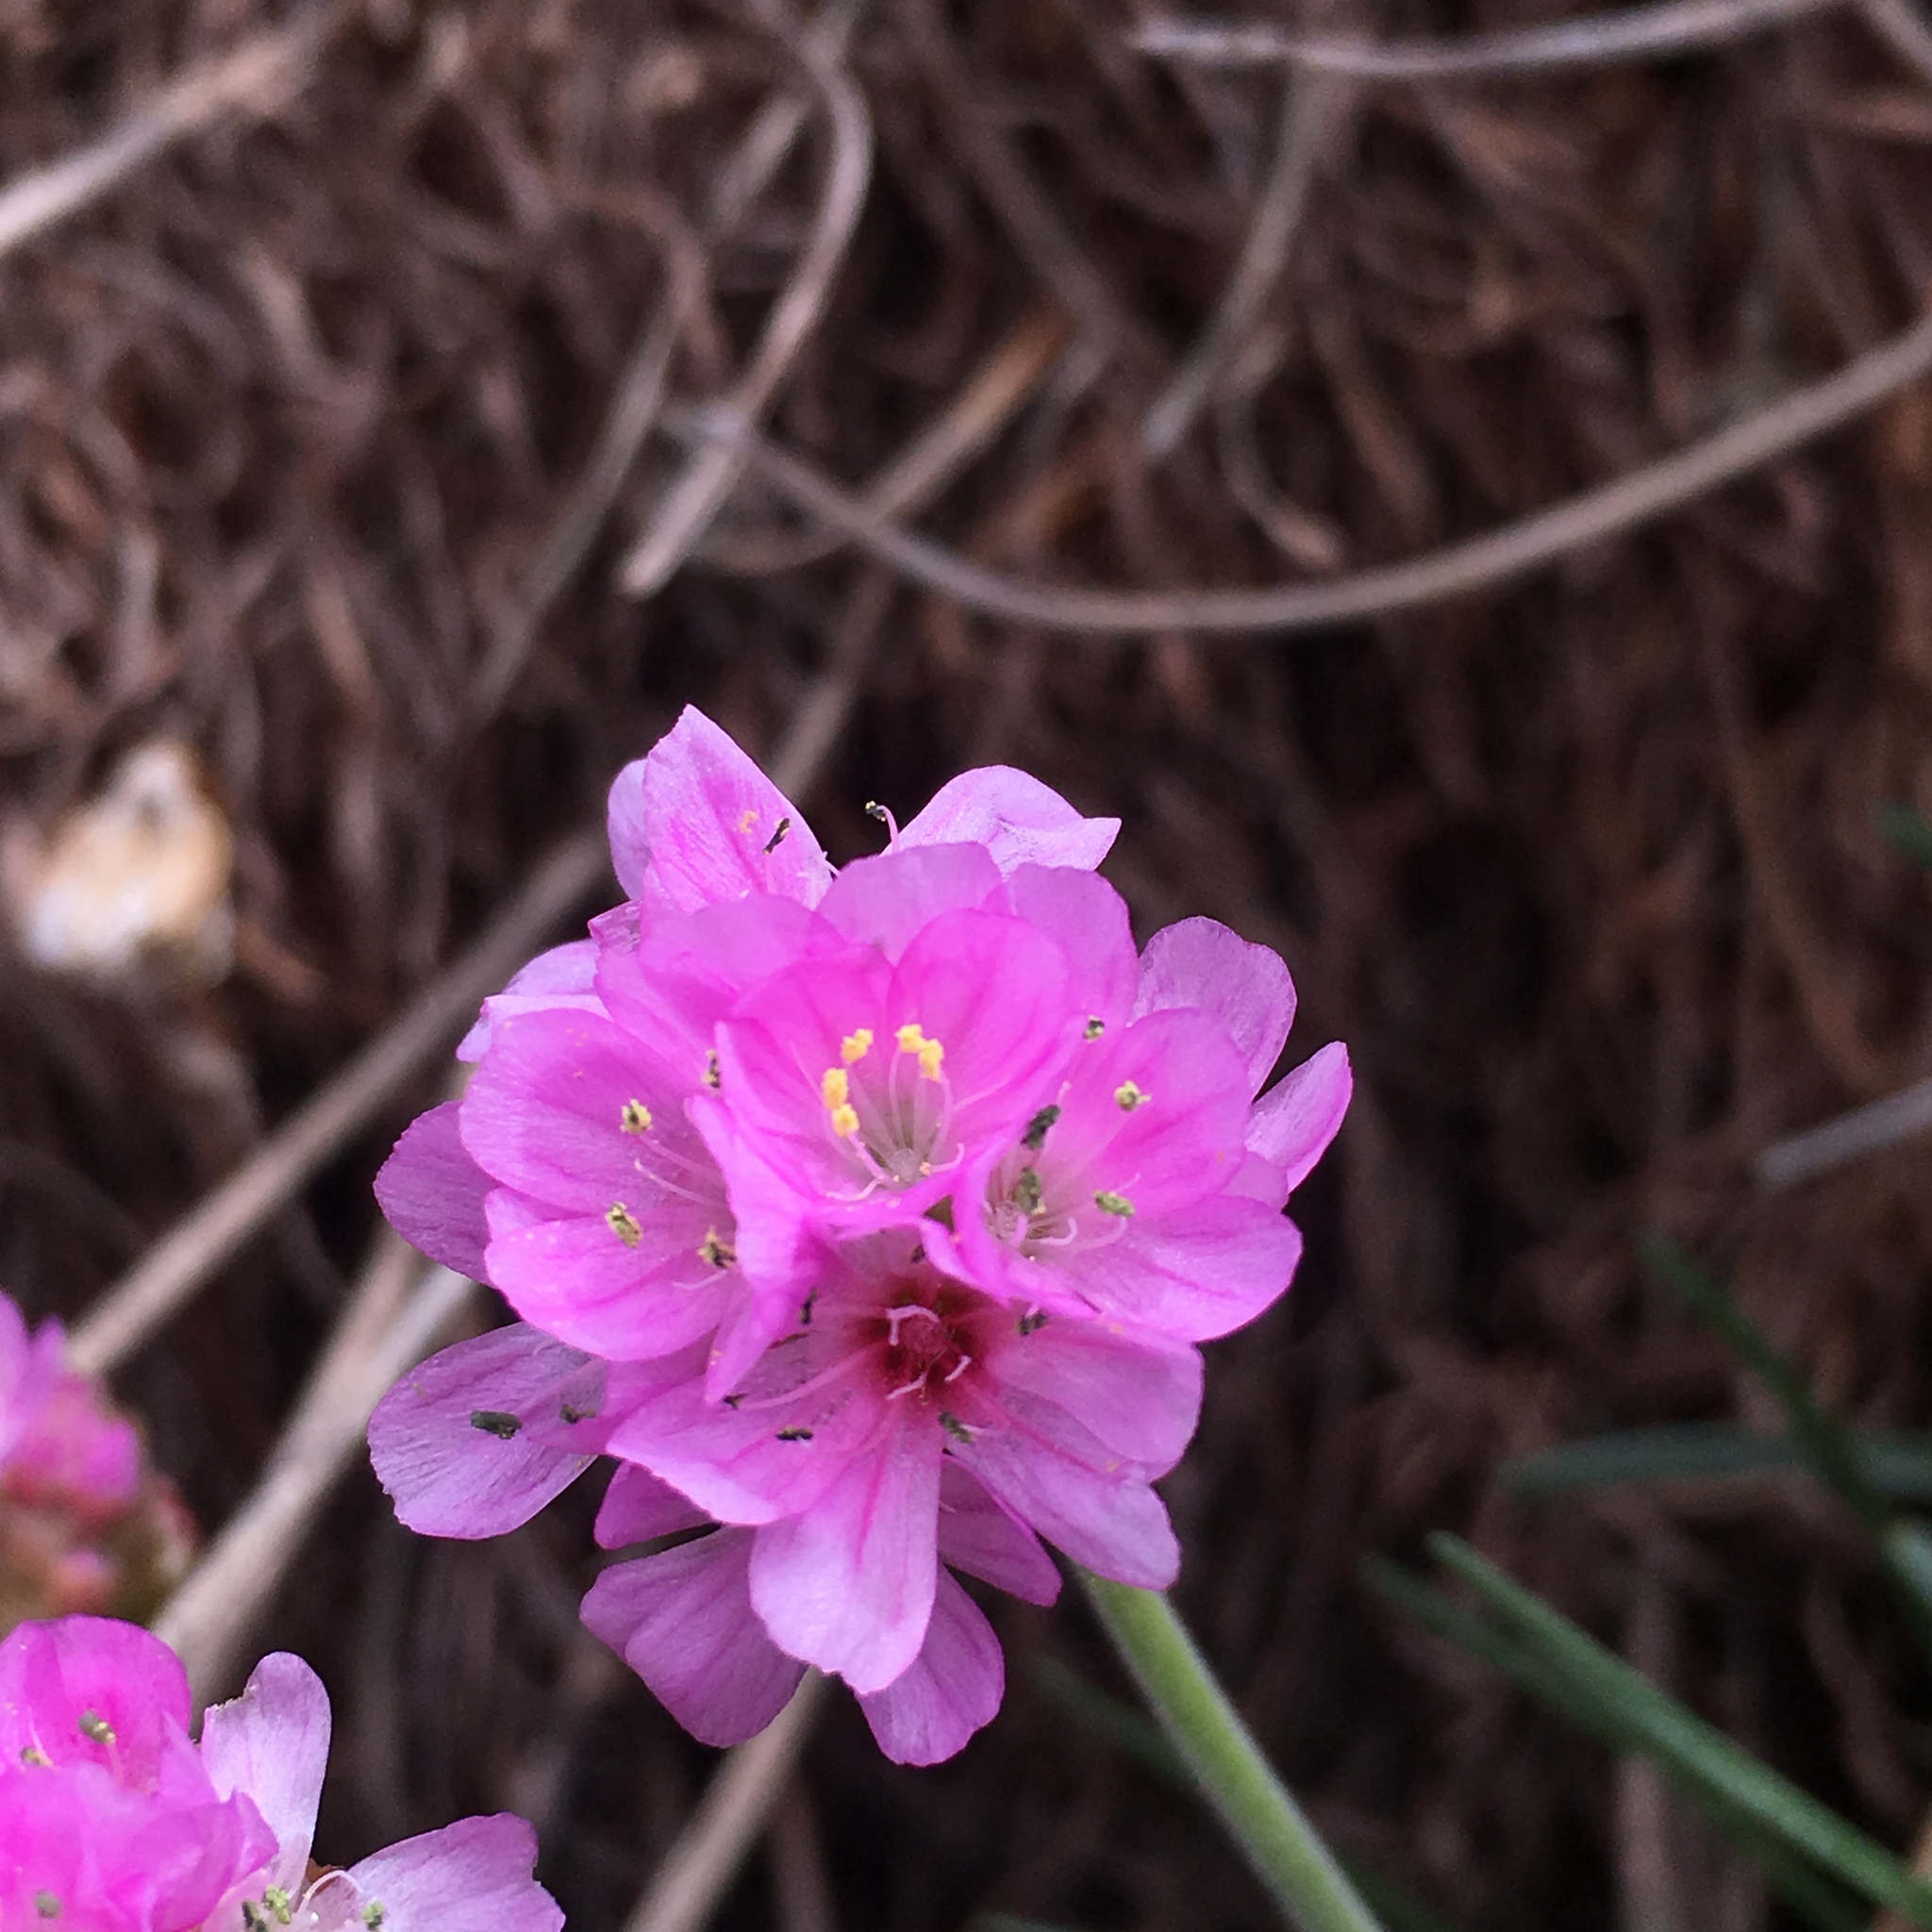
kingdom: Plantae
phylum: Tracheophyta
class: Magnoliopsida
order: Caryophyllales
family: Plumbaginaceae
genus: Armeria
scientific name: Armeria maritima
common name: Thrift
